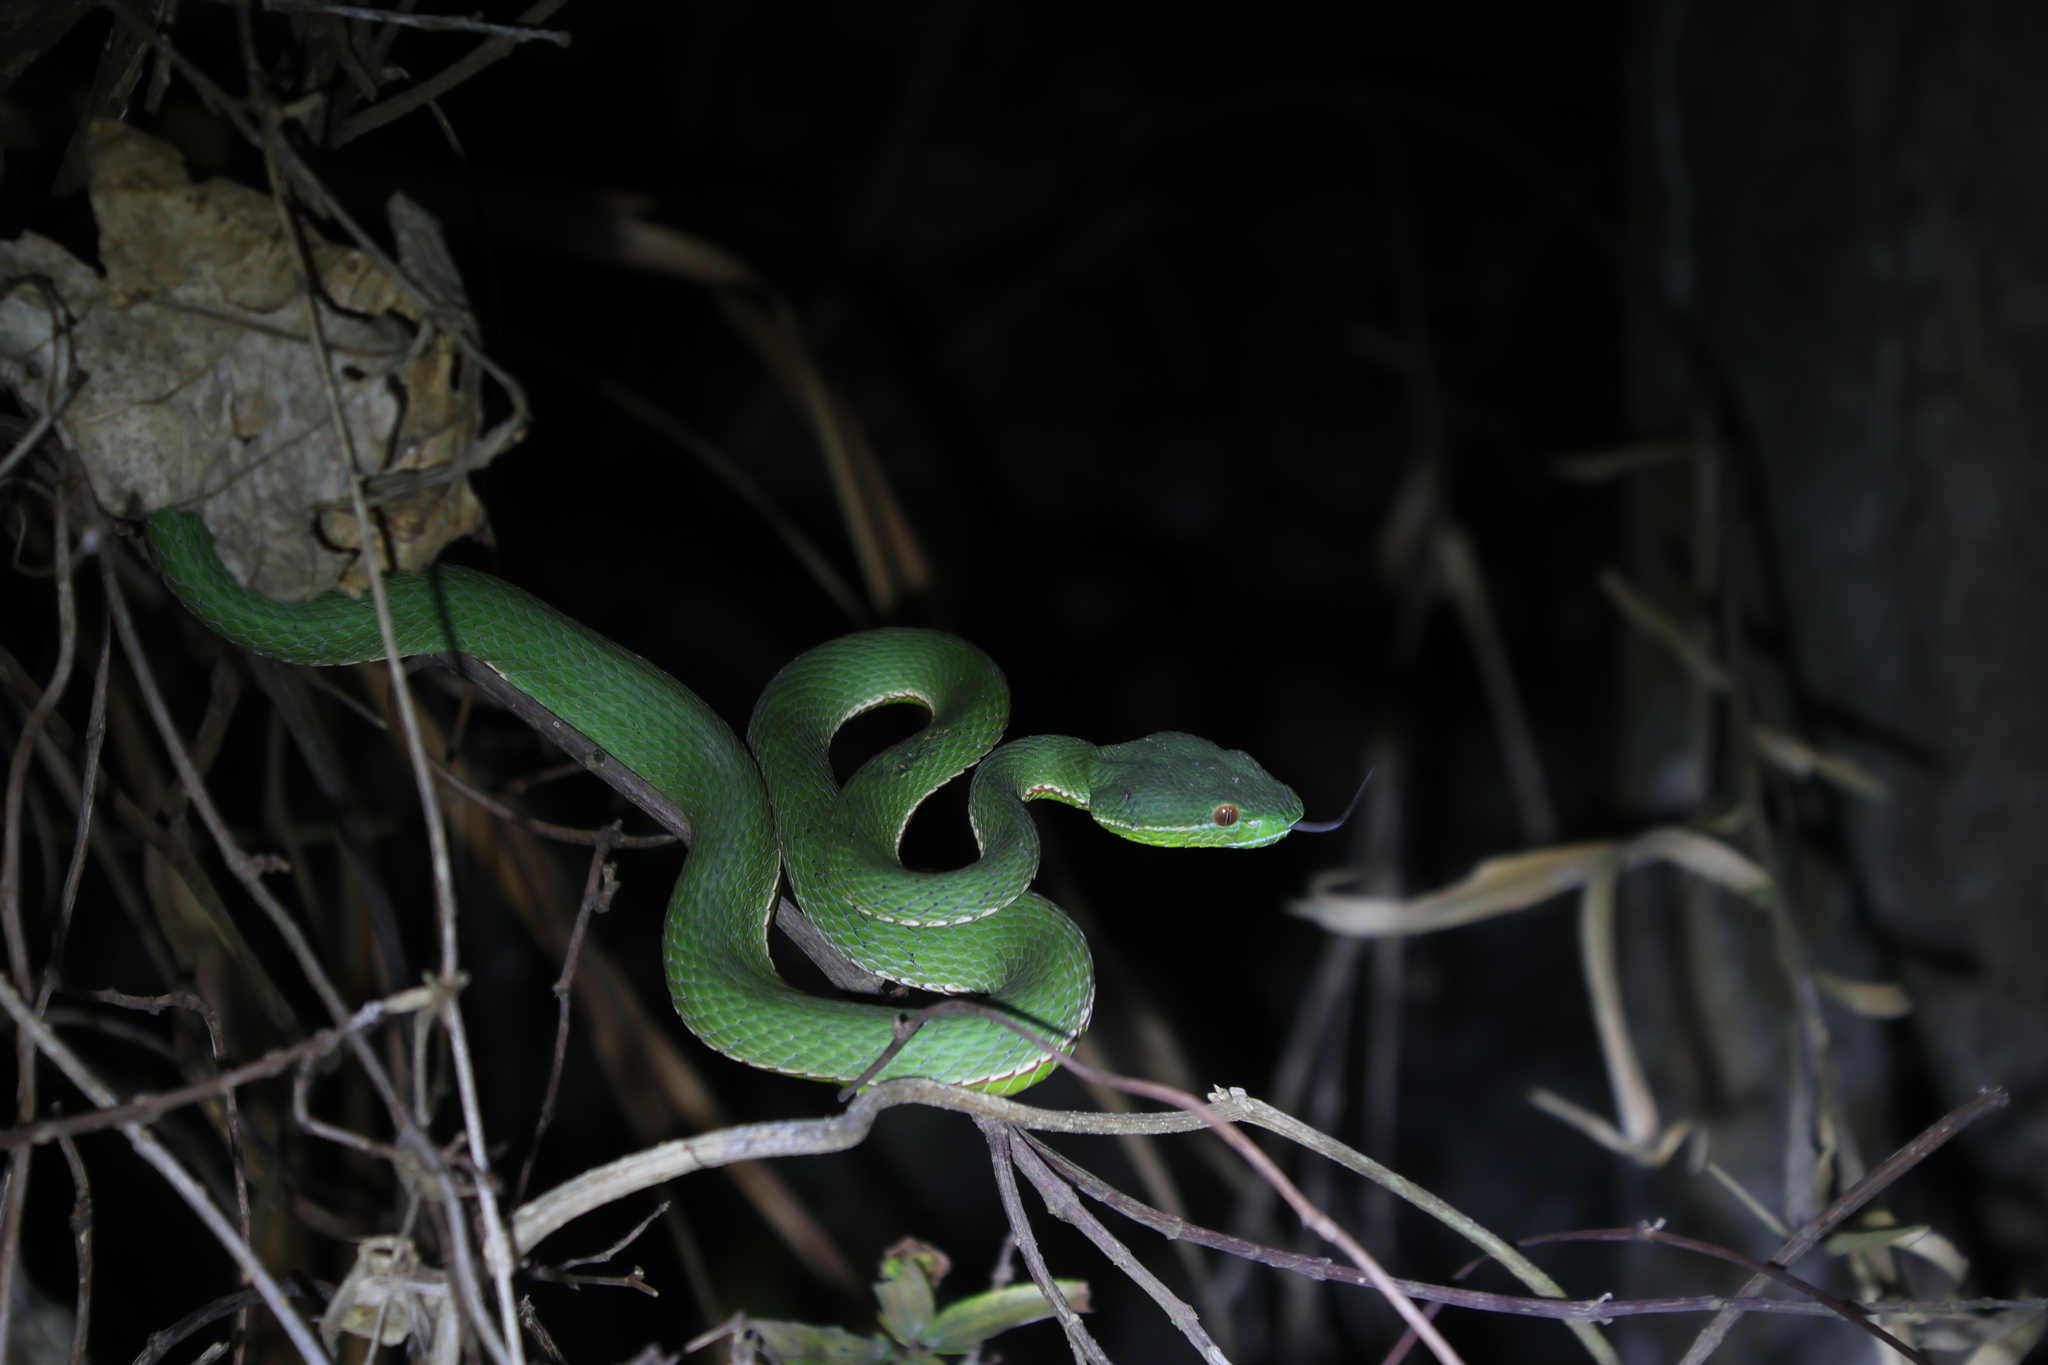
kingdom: Animalia
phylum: Chordata
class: Squamata
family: Viperidae
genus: Trimeresurus
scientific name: Trimeresurus stejnegeri
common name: Chen’s bamboo pit viper
